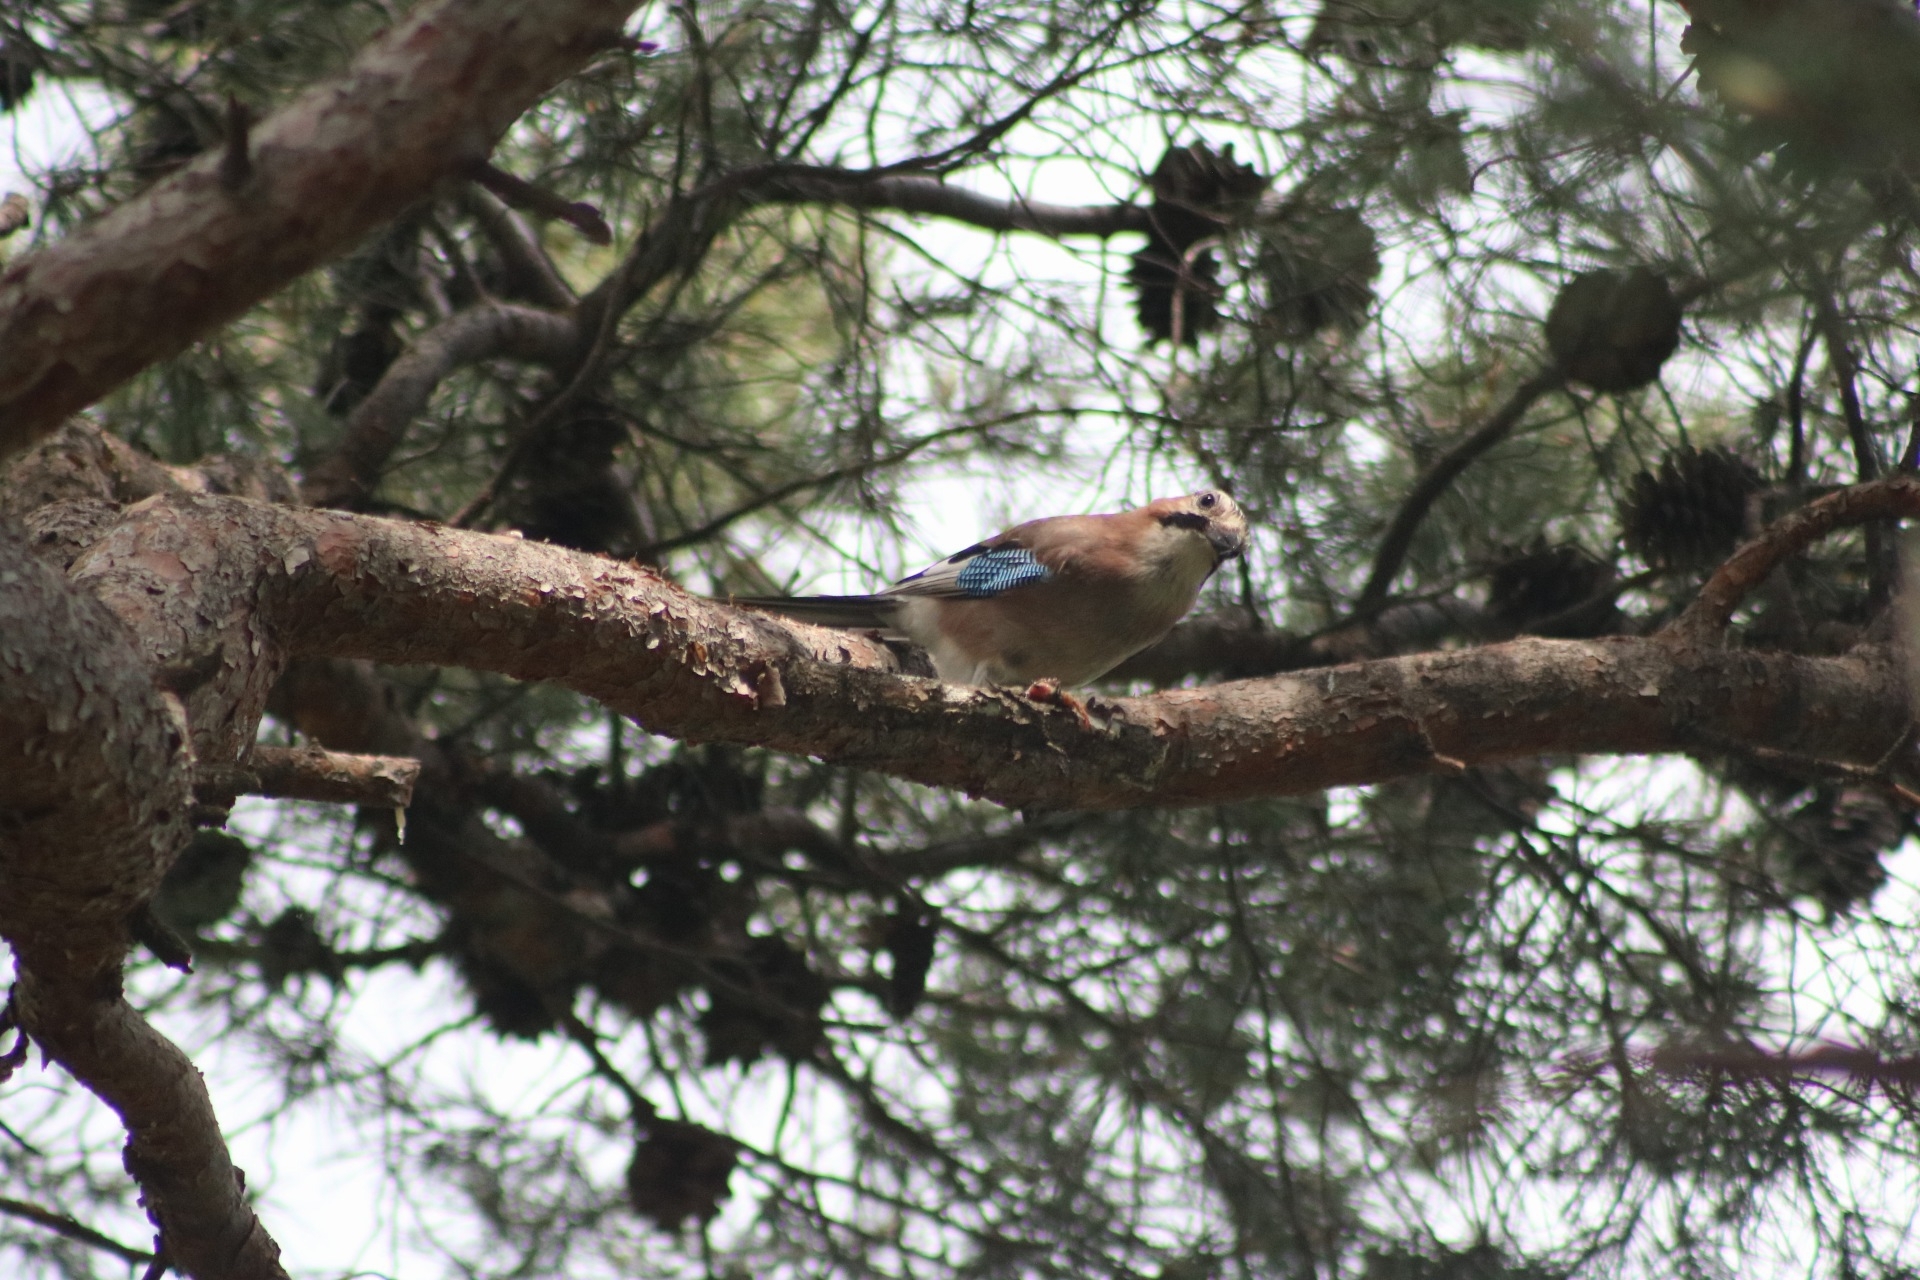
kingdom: Animalia
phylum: Chordata
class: Aves
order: Passeriformes
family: Corvidae
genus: Garrulus
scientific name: Garrulus glandarius
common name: Eurasian jay
